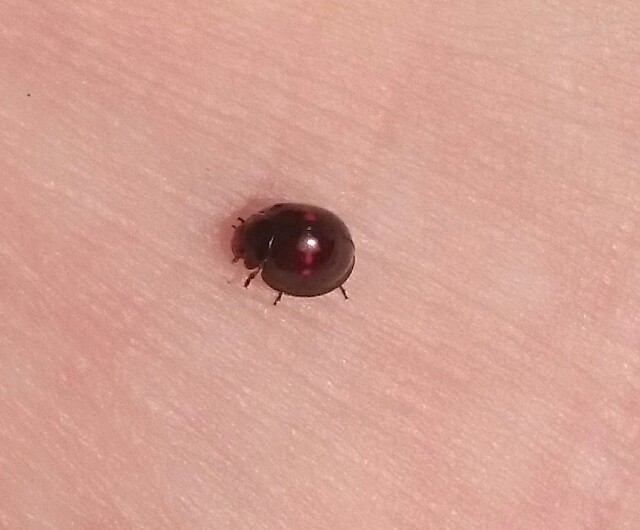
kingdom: Animalia
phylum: Arthropoda
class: Insecta
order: Coleoptera
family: Coccinellidae
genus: Chilocorus
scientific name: Chilocorus bipustulatus
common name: Heather ladybird
